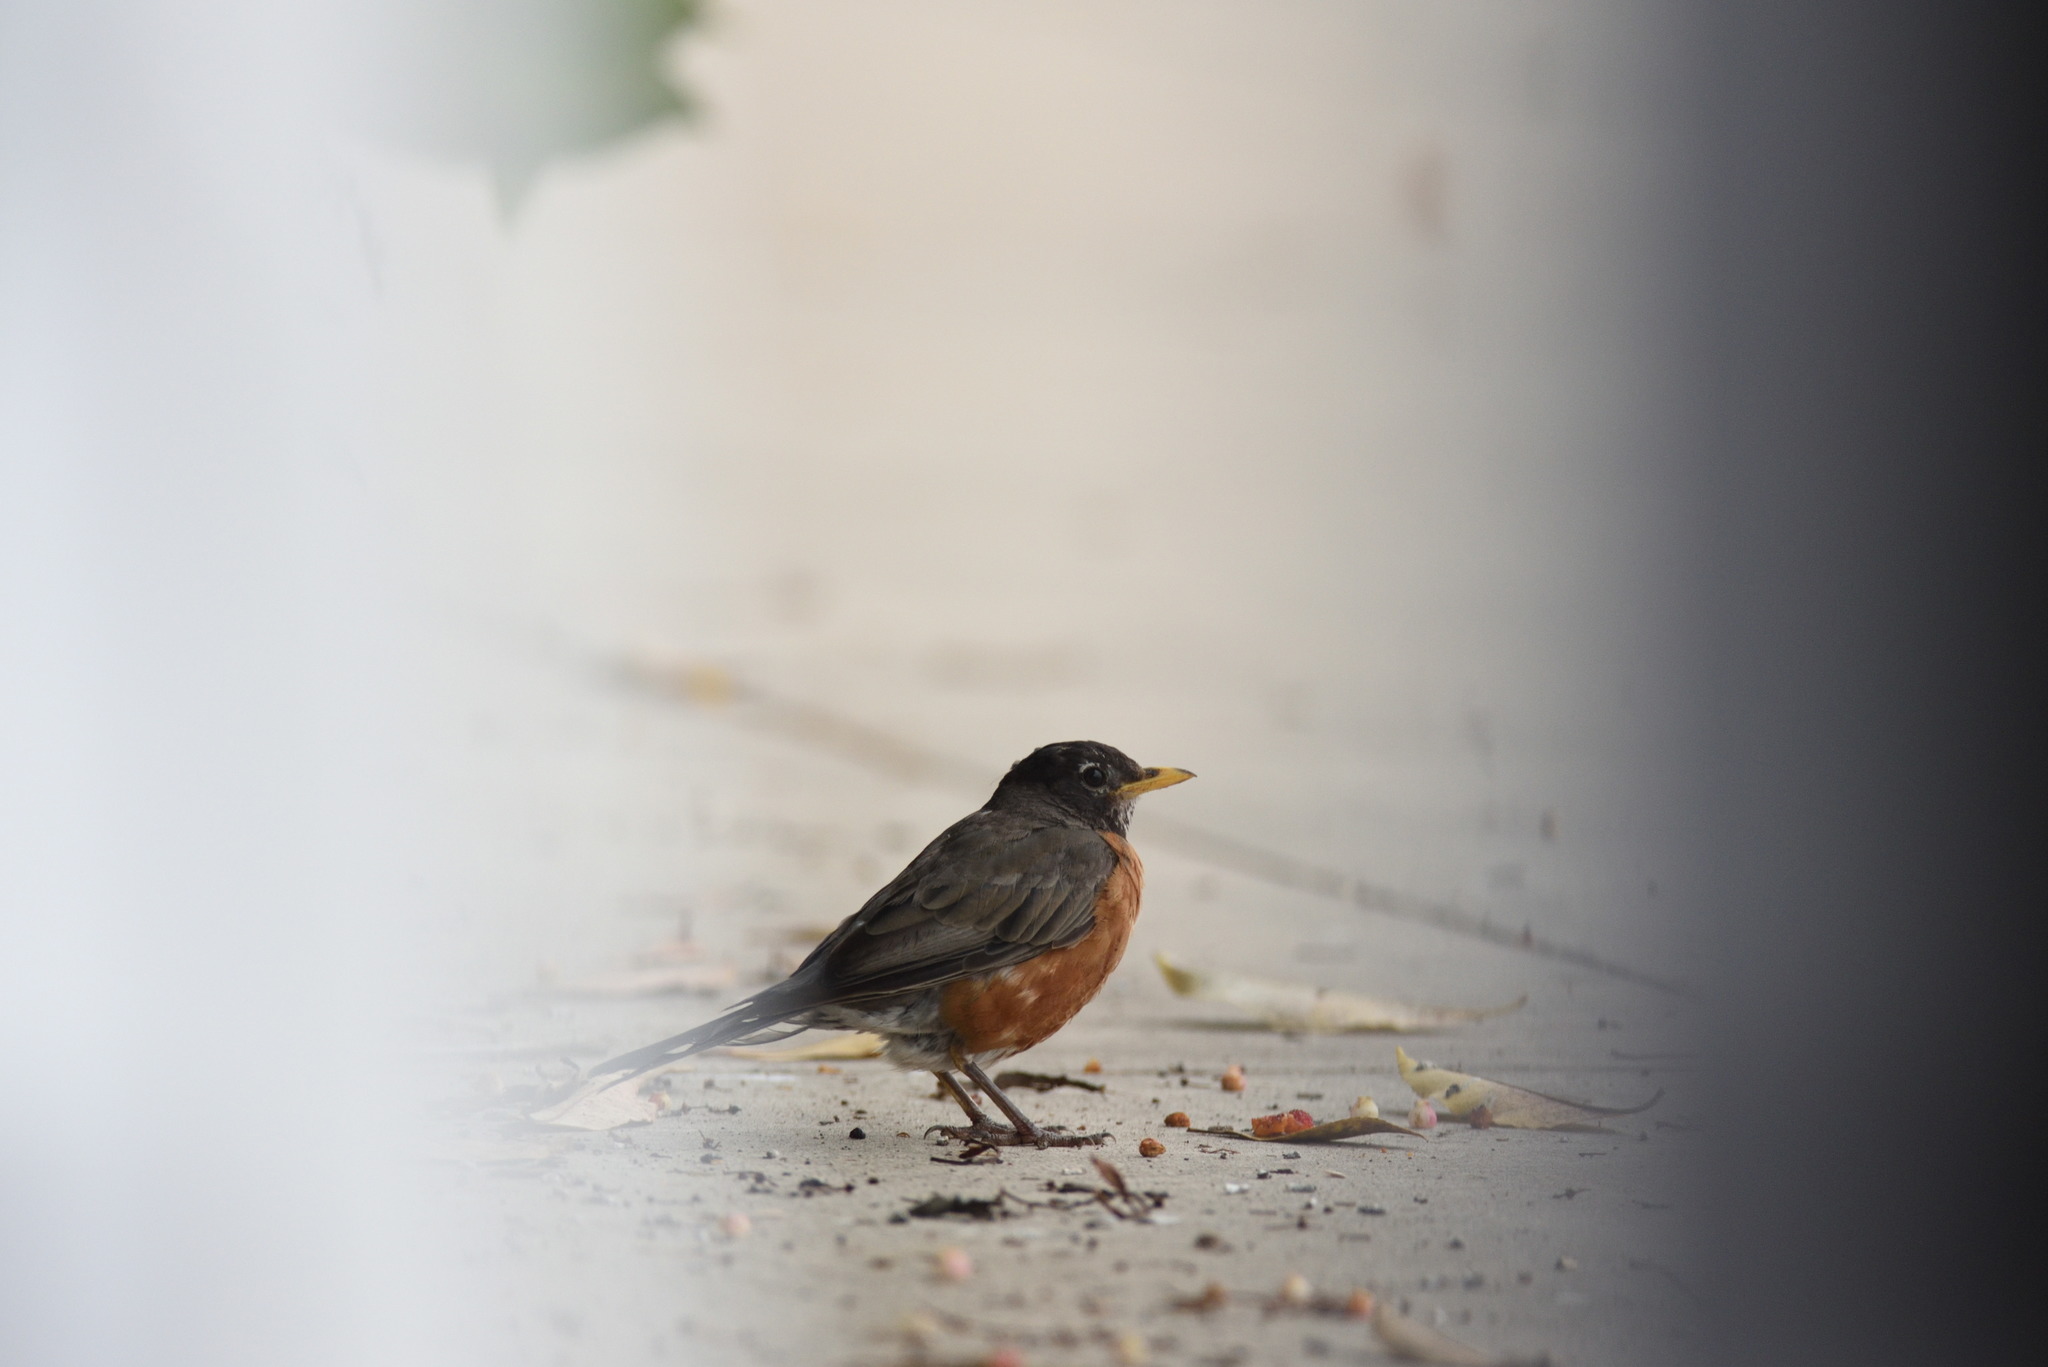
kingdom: Animalia
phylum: Chordata
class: Aves
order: Passeriformes
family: Turdidae
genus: Turdus
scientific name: Turdus migratorius
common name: American robin
